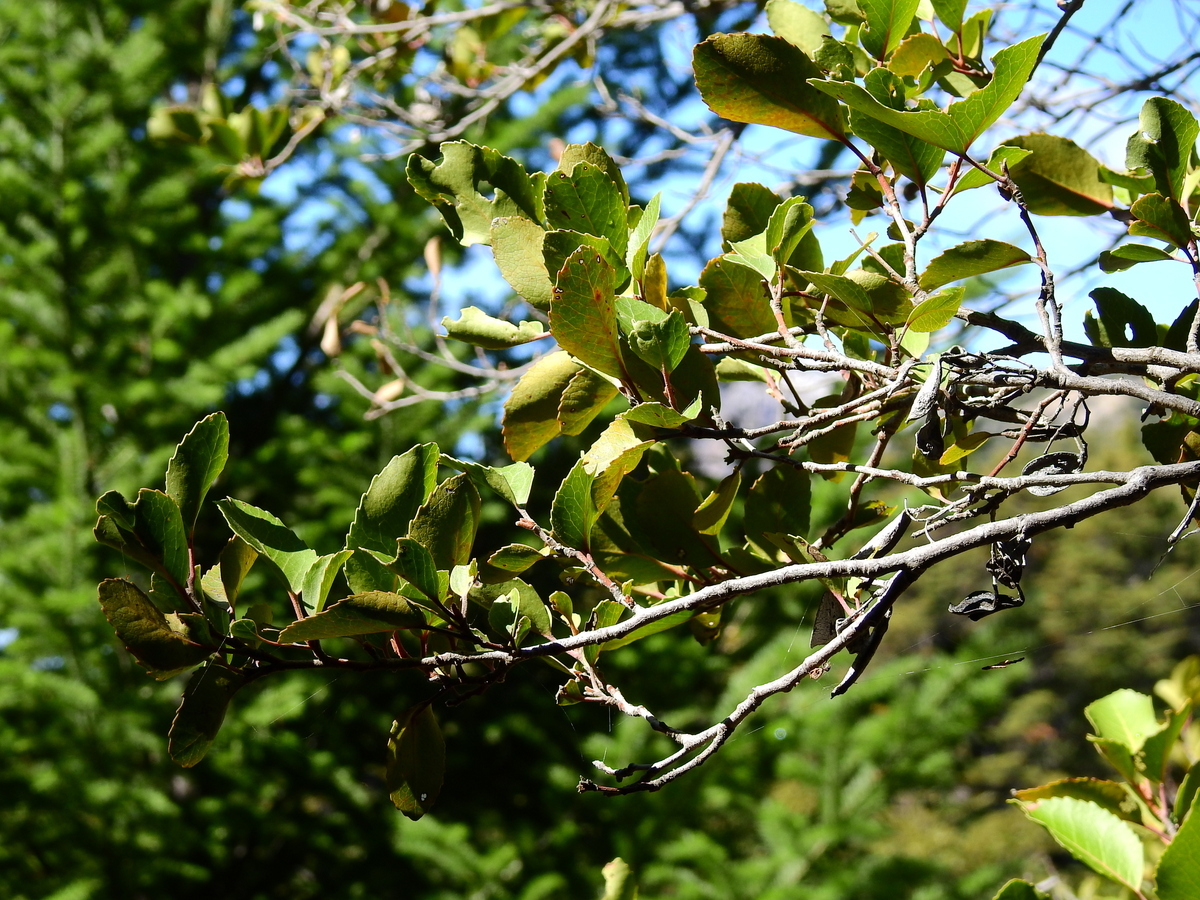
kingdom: Plantae
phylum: Tracheophyta
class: Magnoliopsida
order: Proteales
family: Proteaceae
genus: Lomatia
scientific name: Lomatia hirsuta
